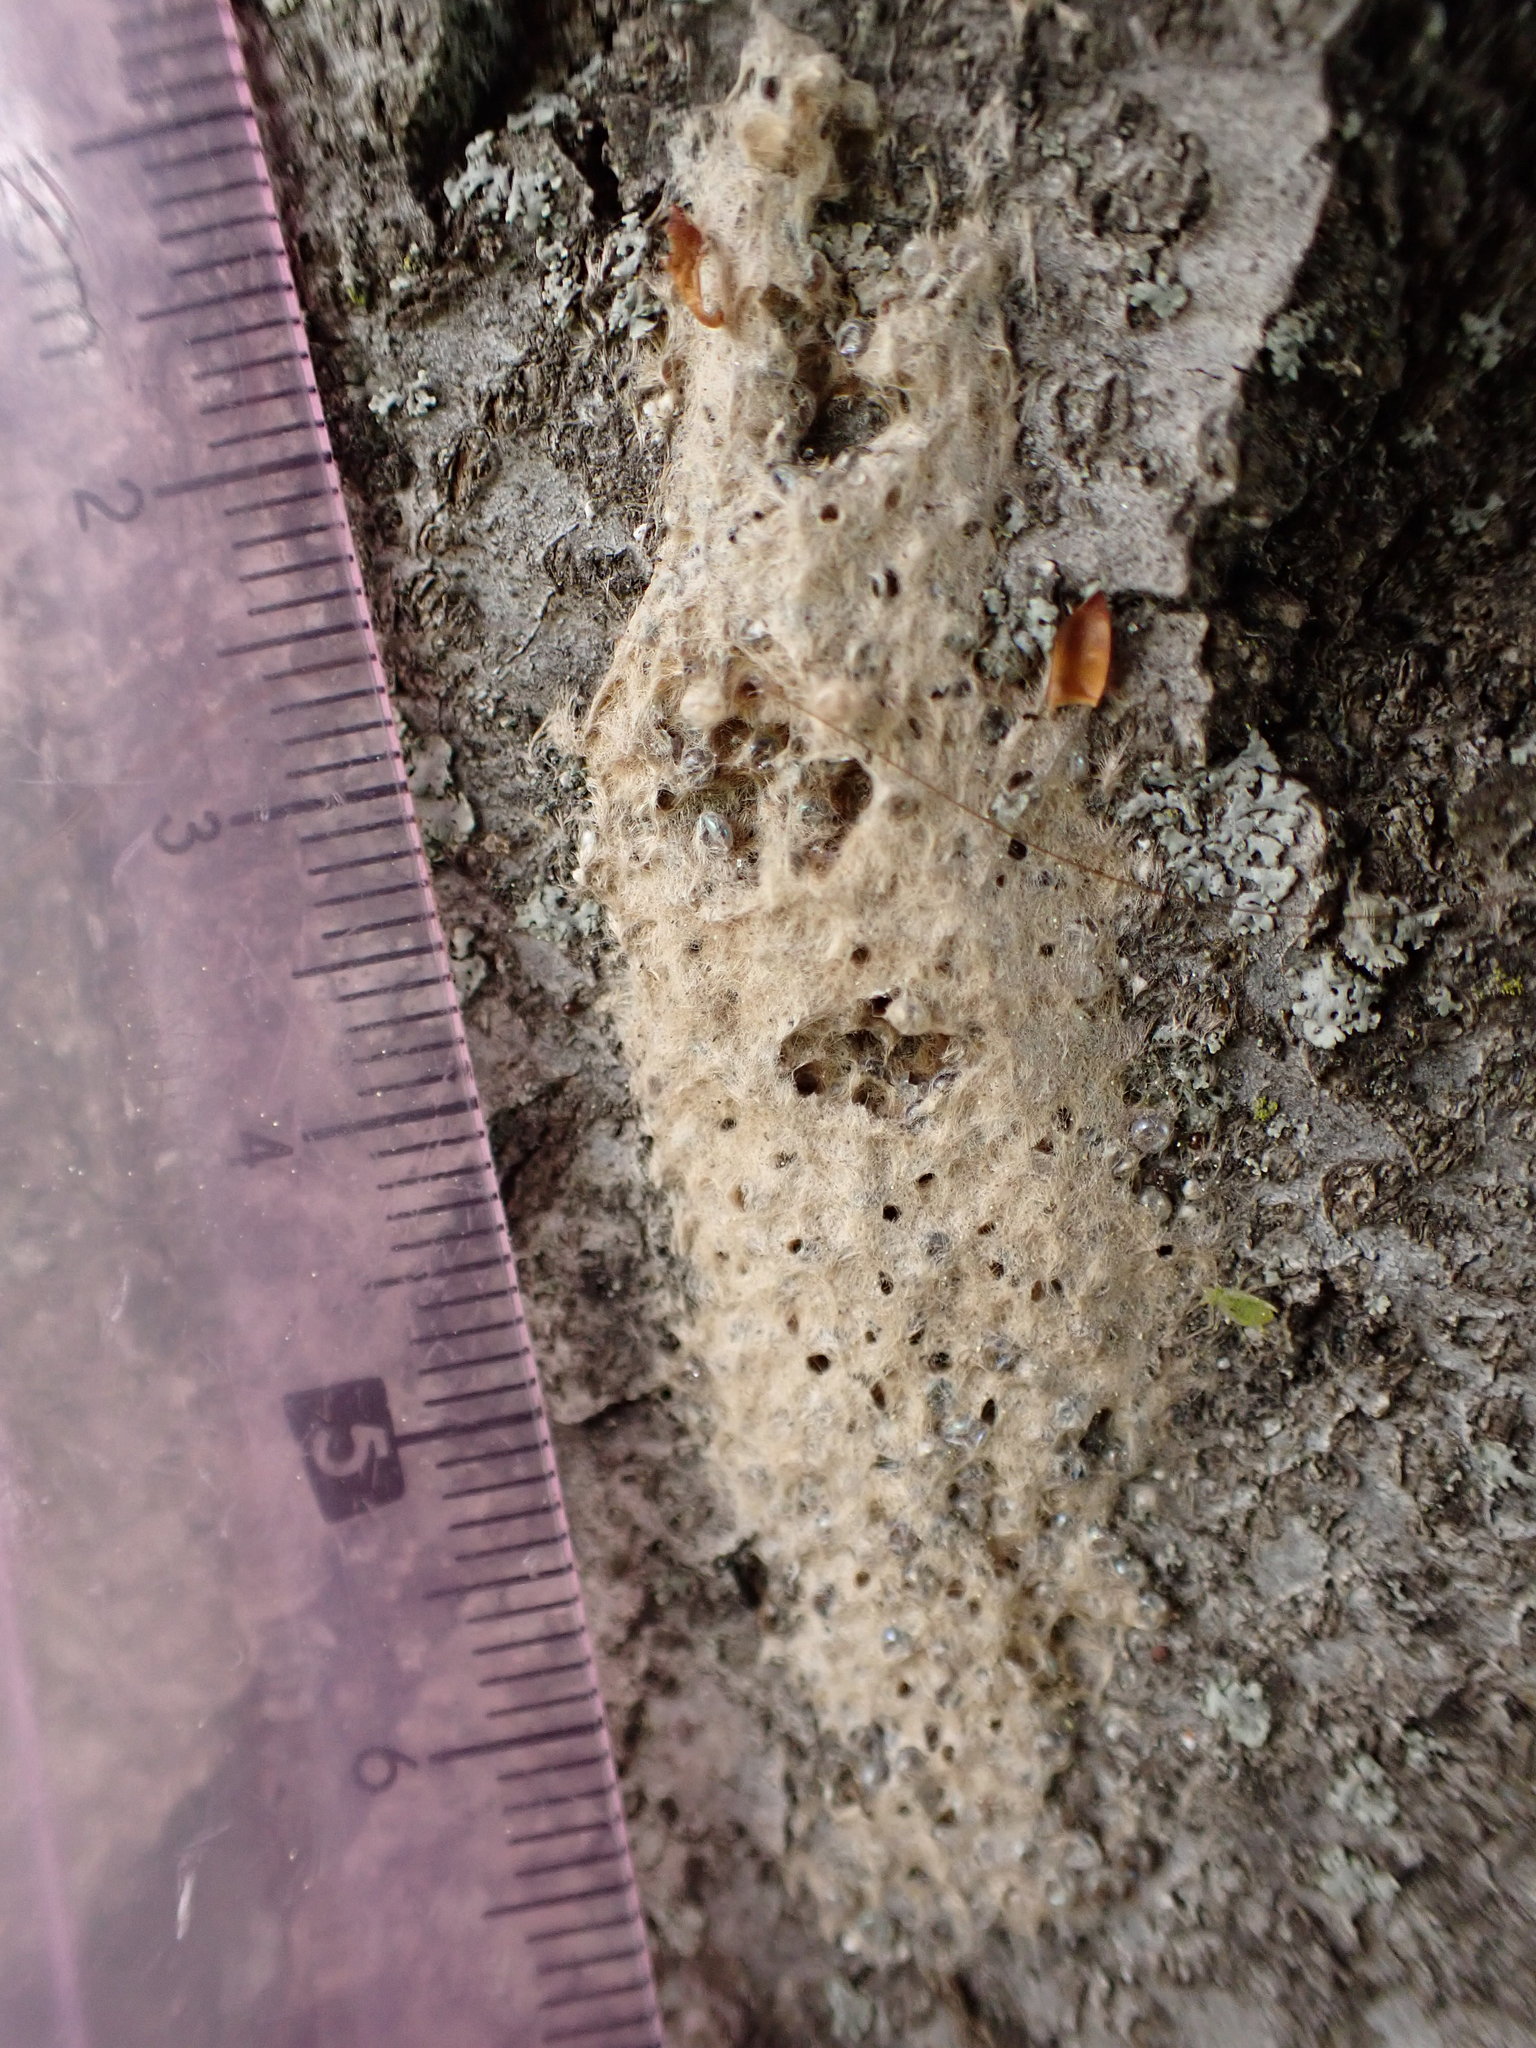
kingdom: Animalia
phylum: Arthropoda
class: Insecta
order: Lepidoptera
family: Erebidae
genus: Lymantria
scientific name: Lymantria dispar
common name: Gypsy moth
